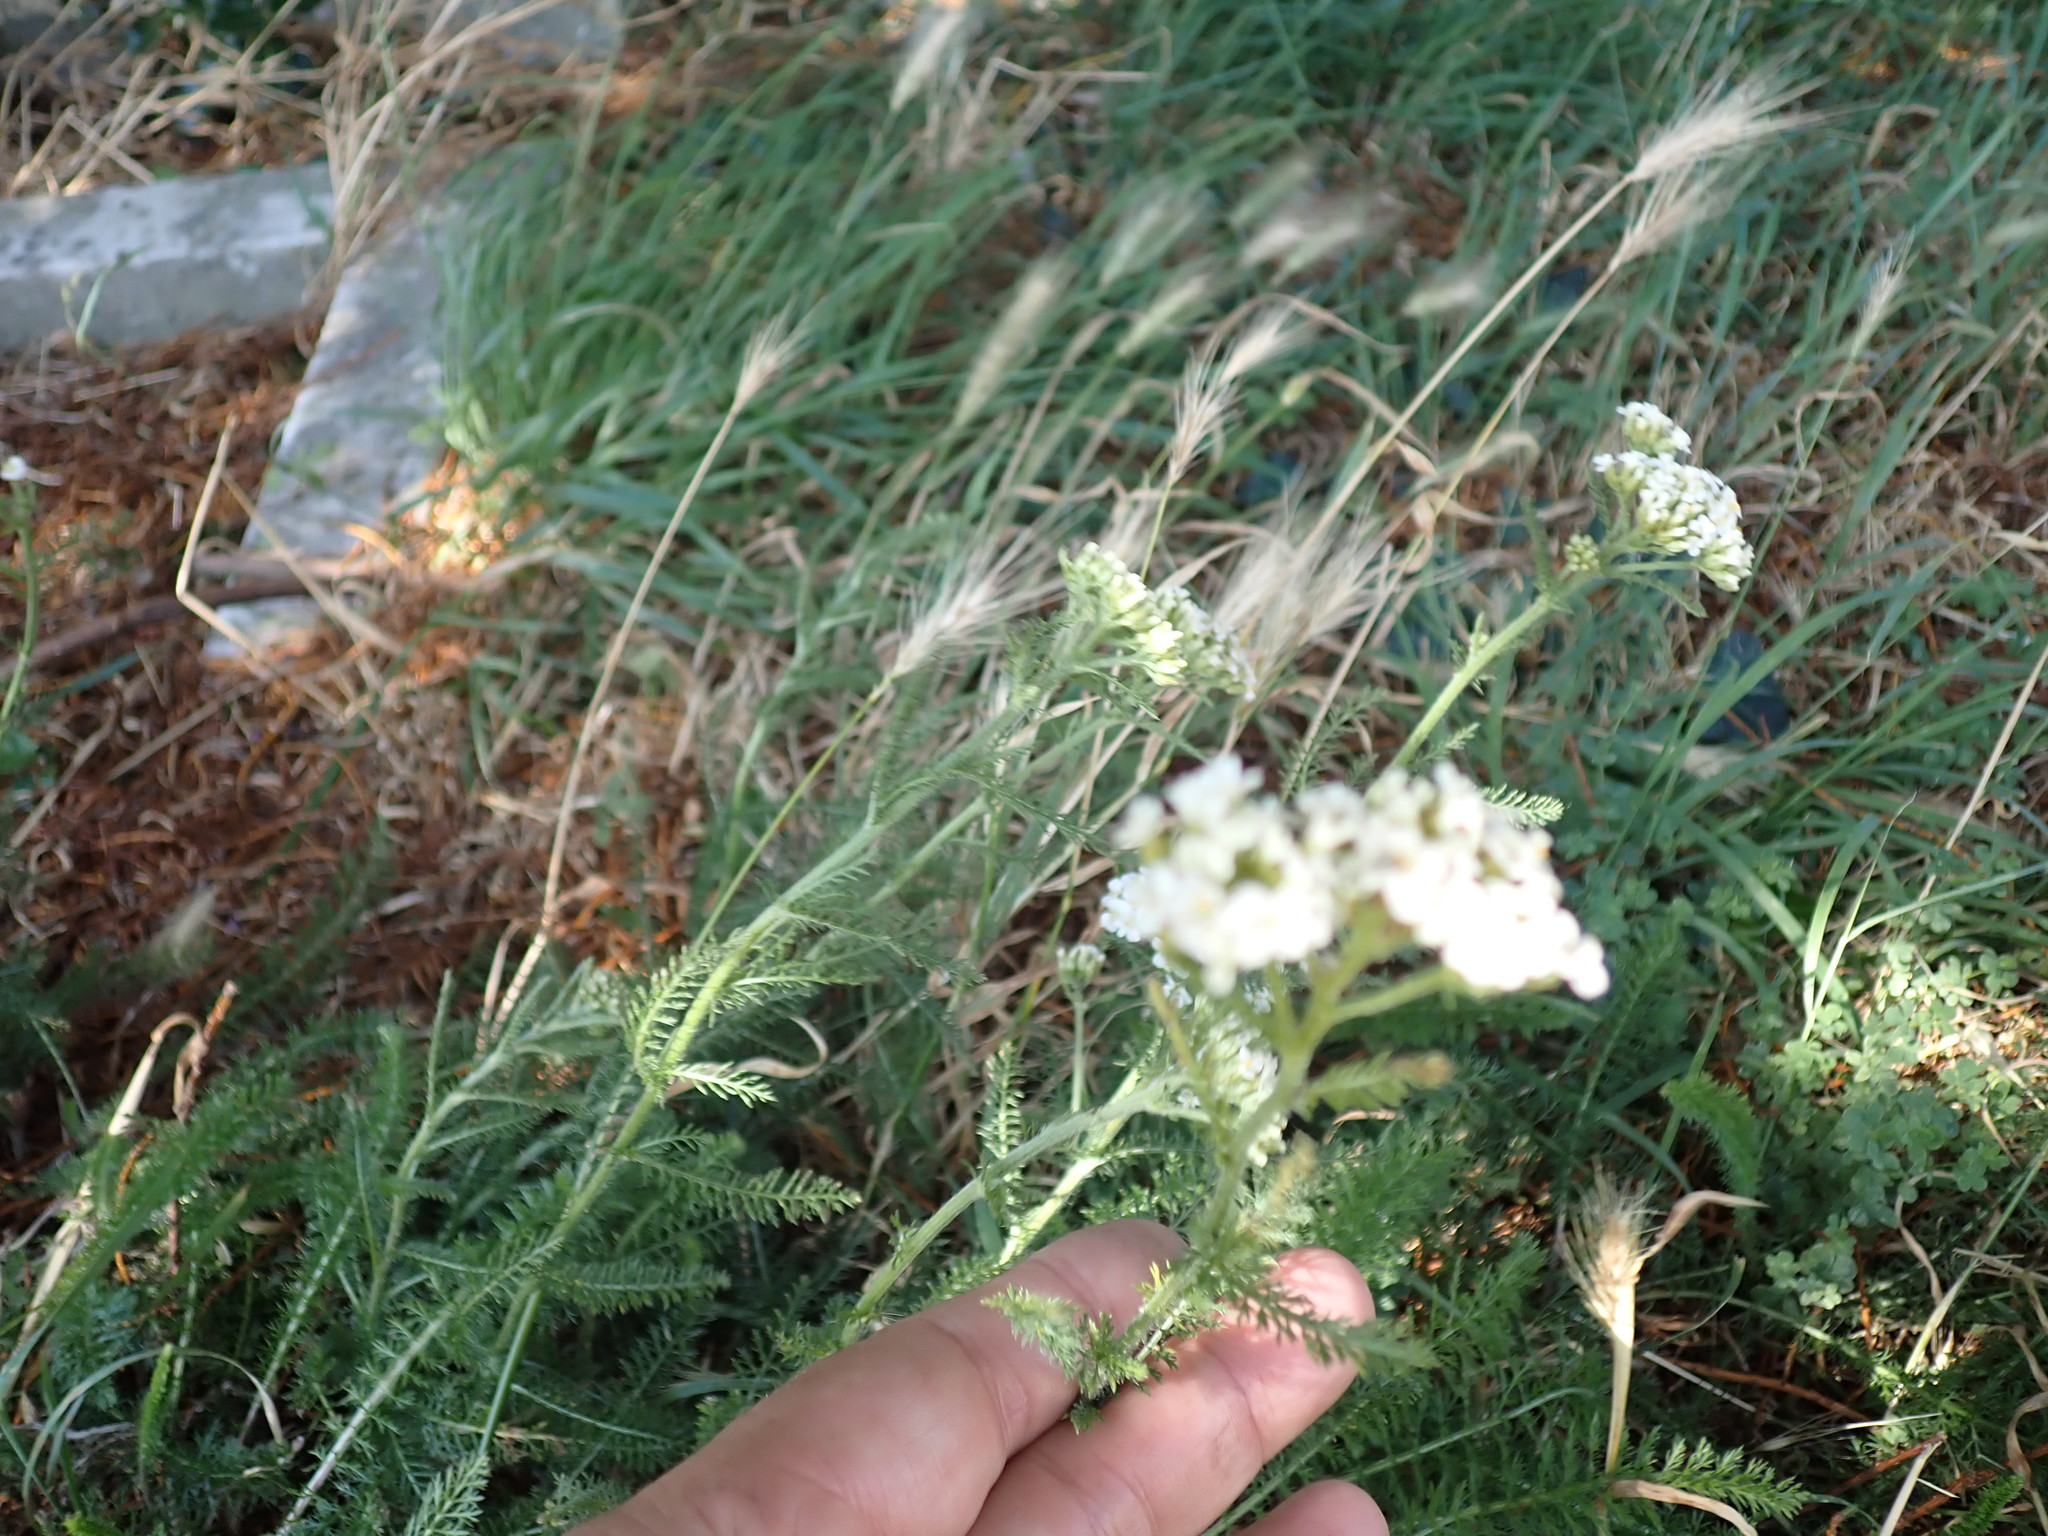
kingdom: Plantae
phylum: Tracheophyta
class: Magnoliopsida
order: Asterales
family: Asteraceae
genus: Achillea
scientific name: Achillea millefolium
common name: Yarrow
